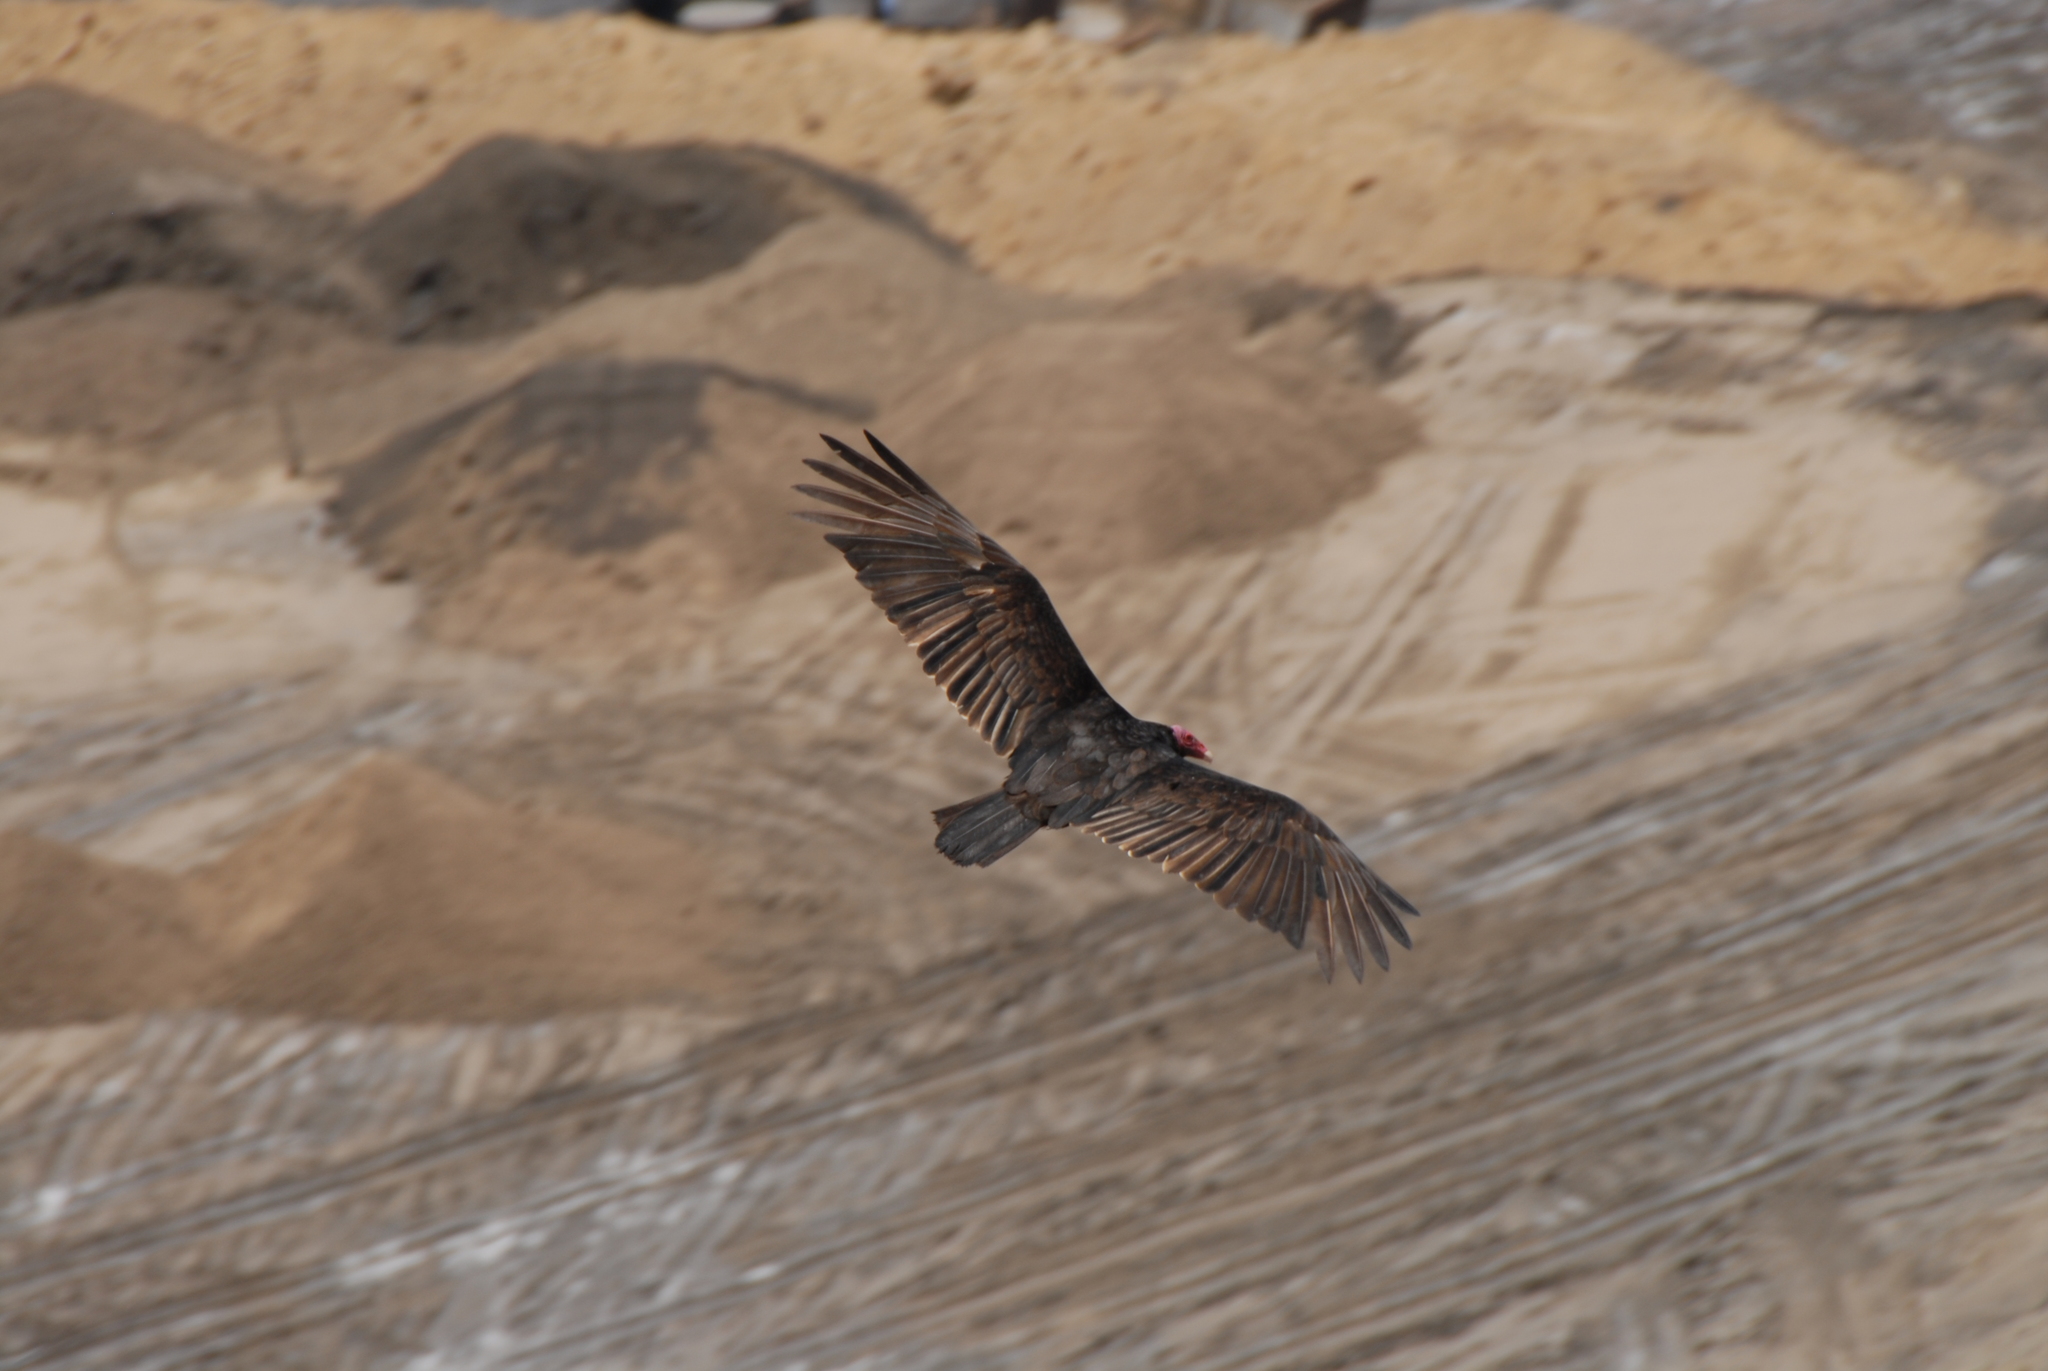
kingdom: Animalia
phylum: Chordata
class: Aves
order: Accipitriformes
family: Cathartidae
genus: Cathartes
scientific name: Cathartes aura
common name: Turkey vulture
